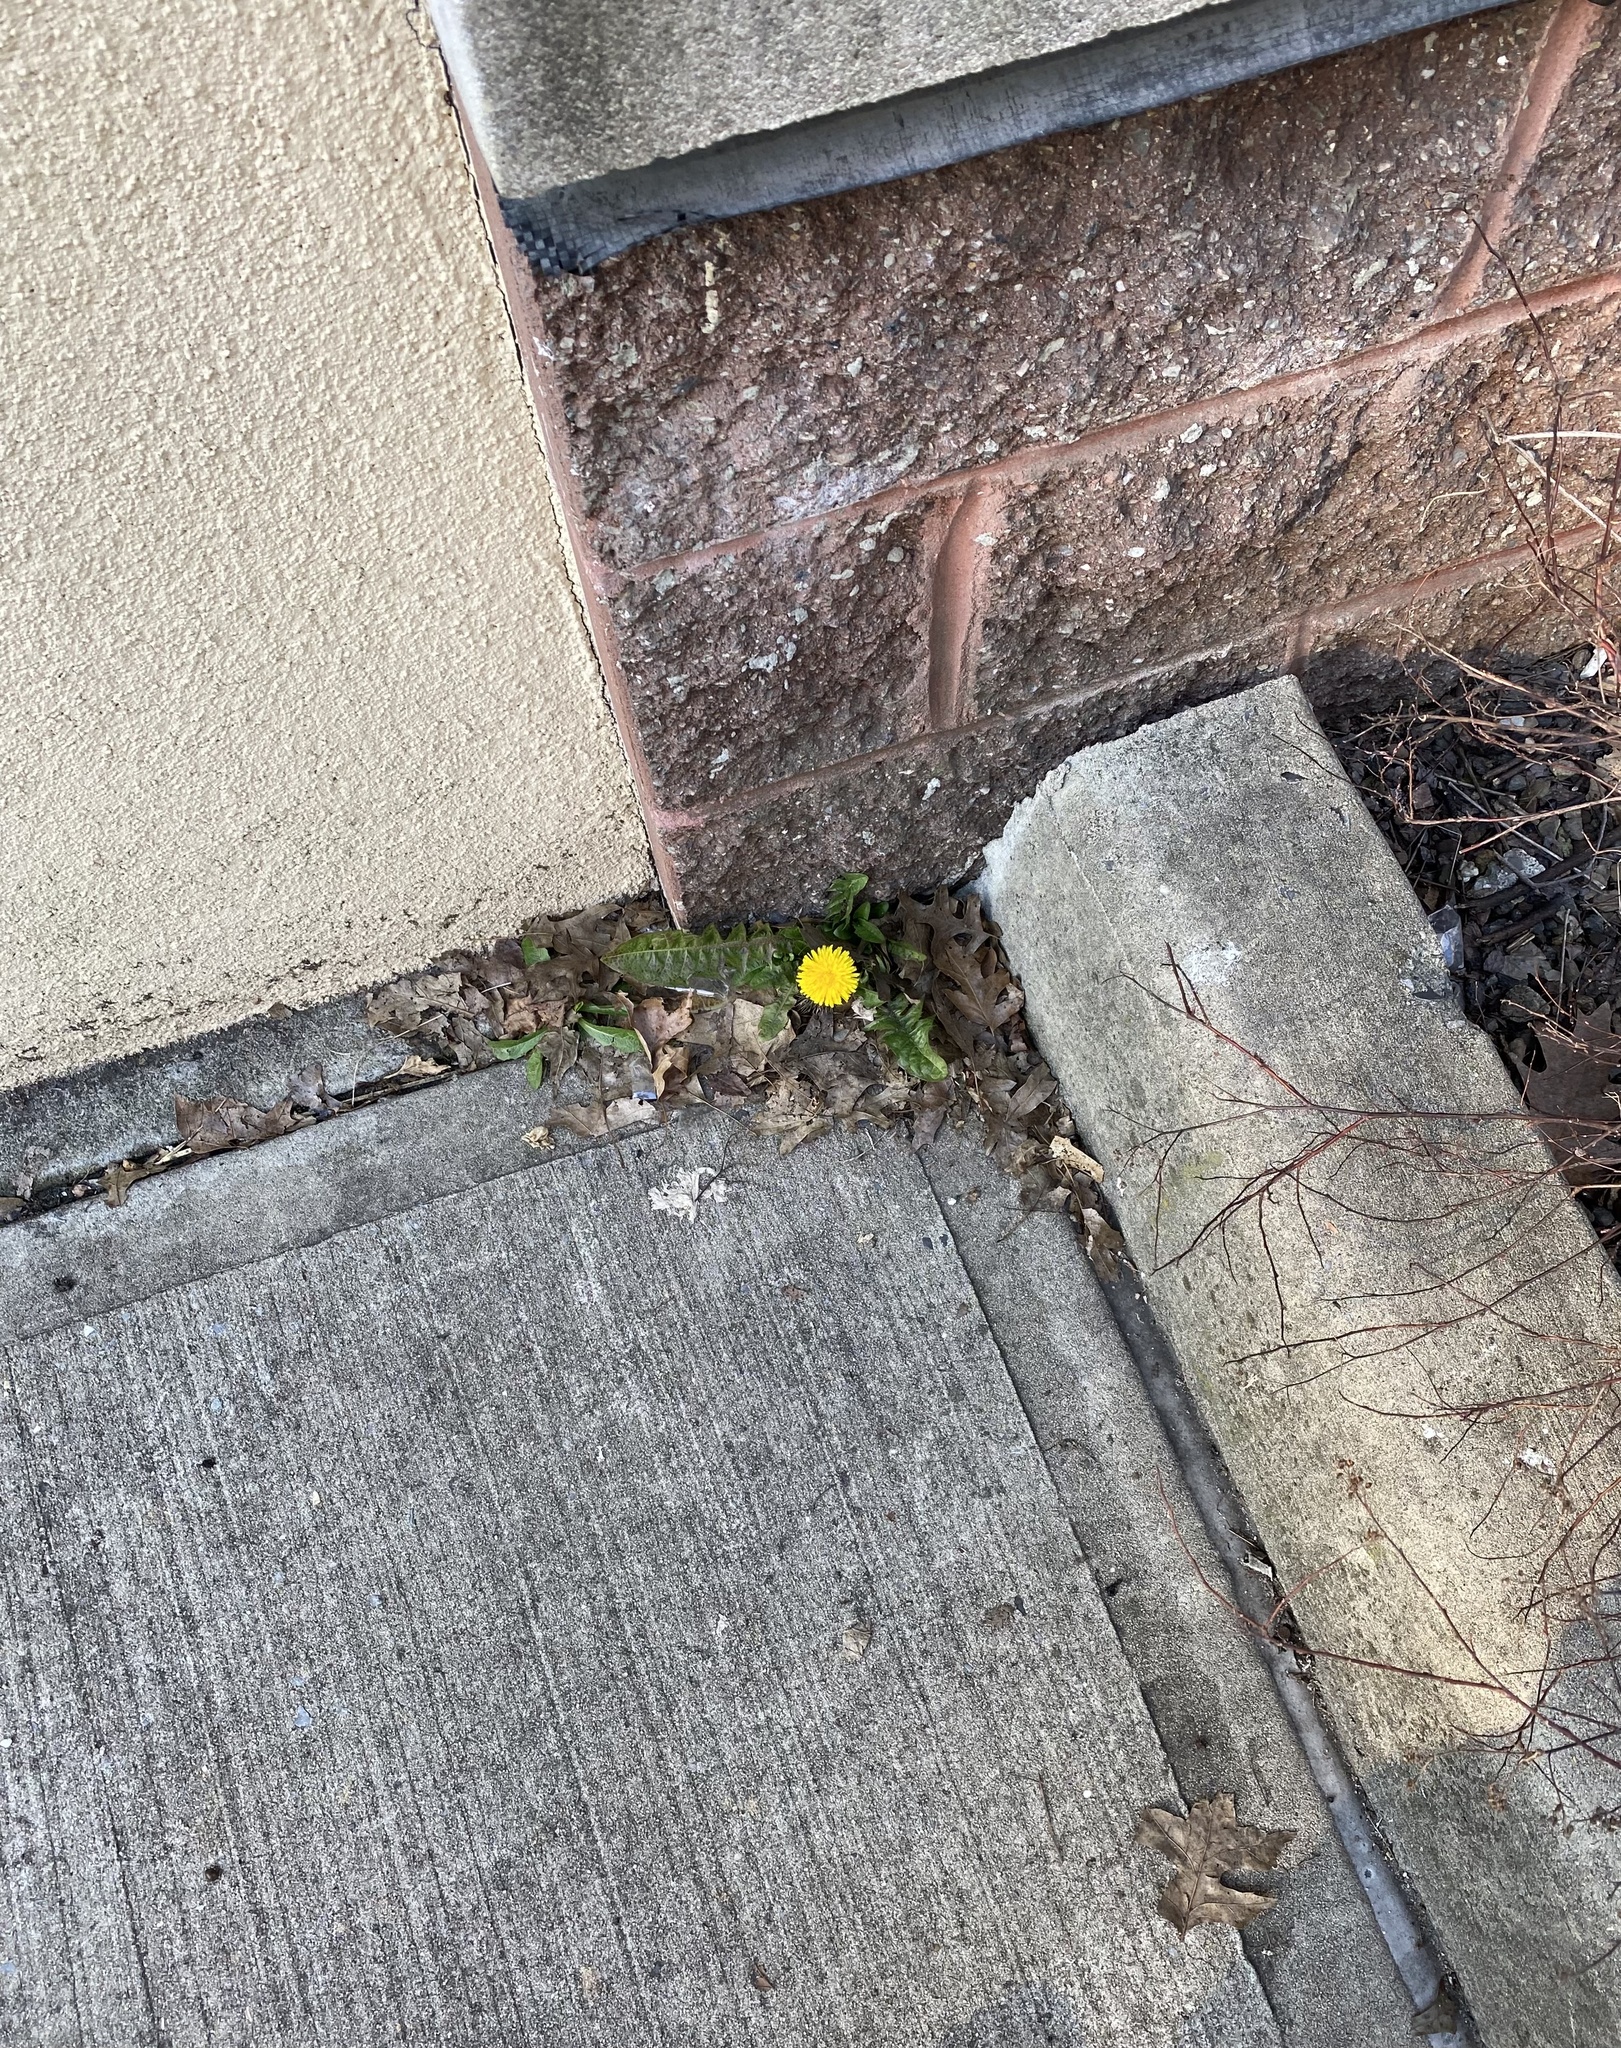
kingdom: Plantae
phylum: Tracheophyta
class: Magnoliopsida
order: Asterales
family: Asteraceae
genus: Taraxacum
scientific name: Taraxacum
